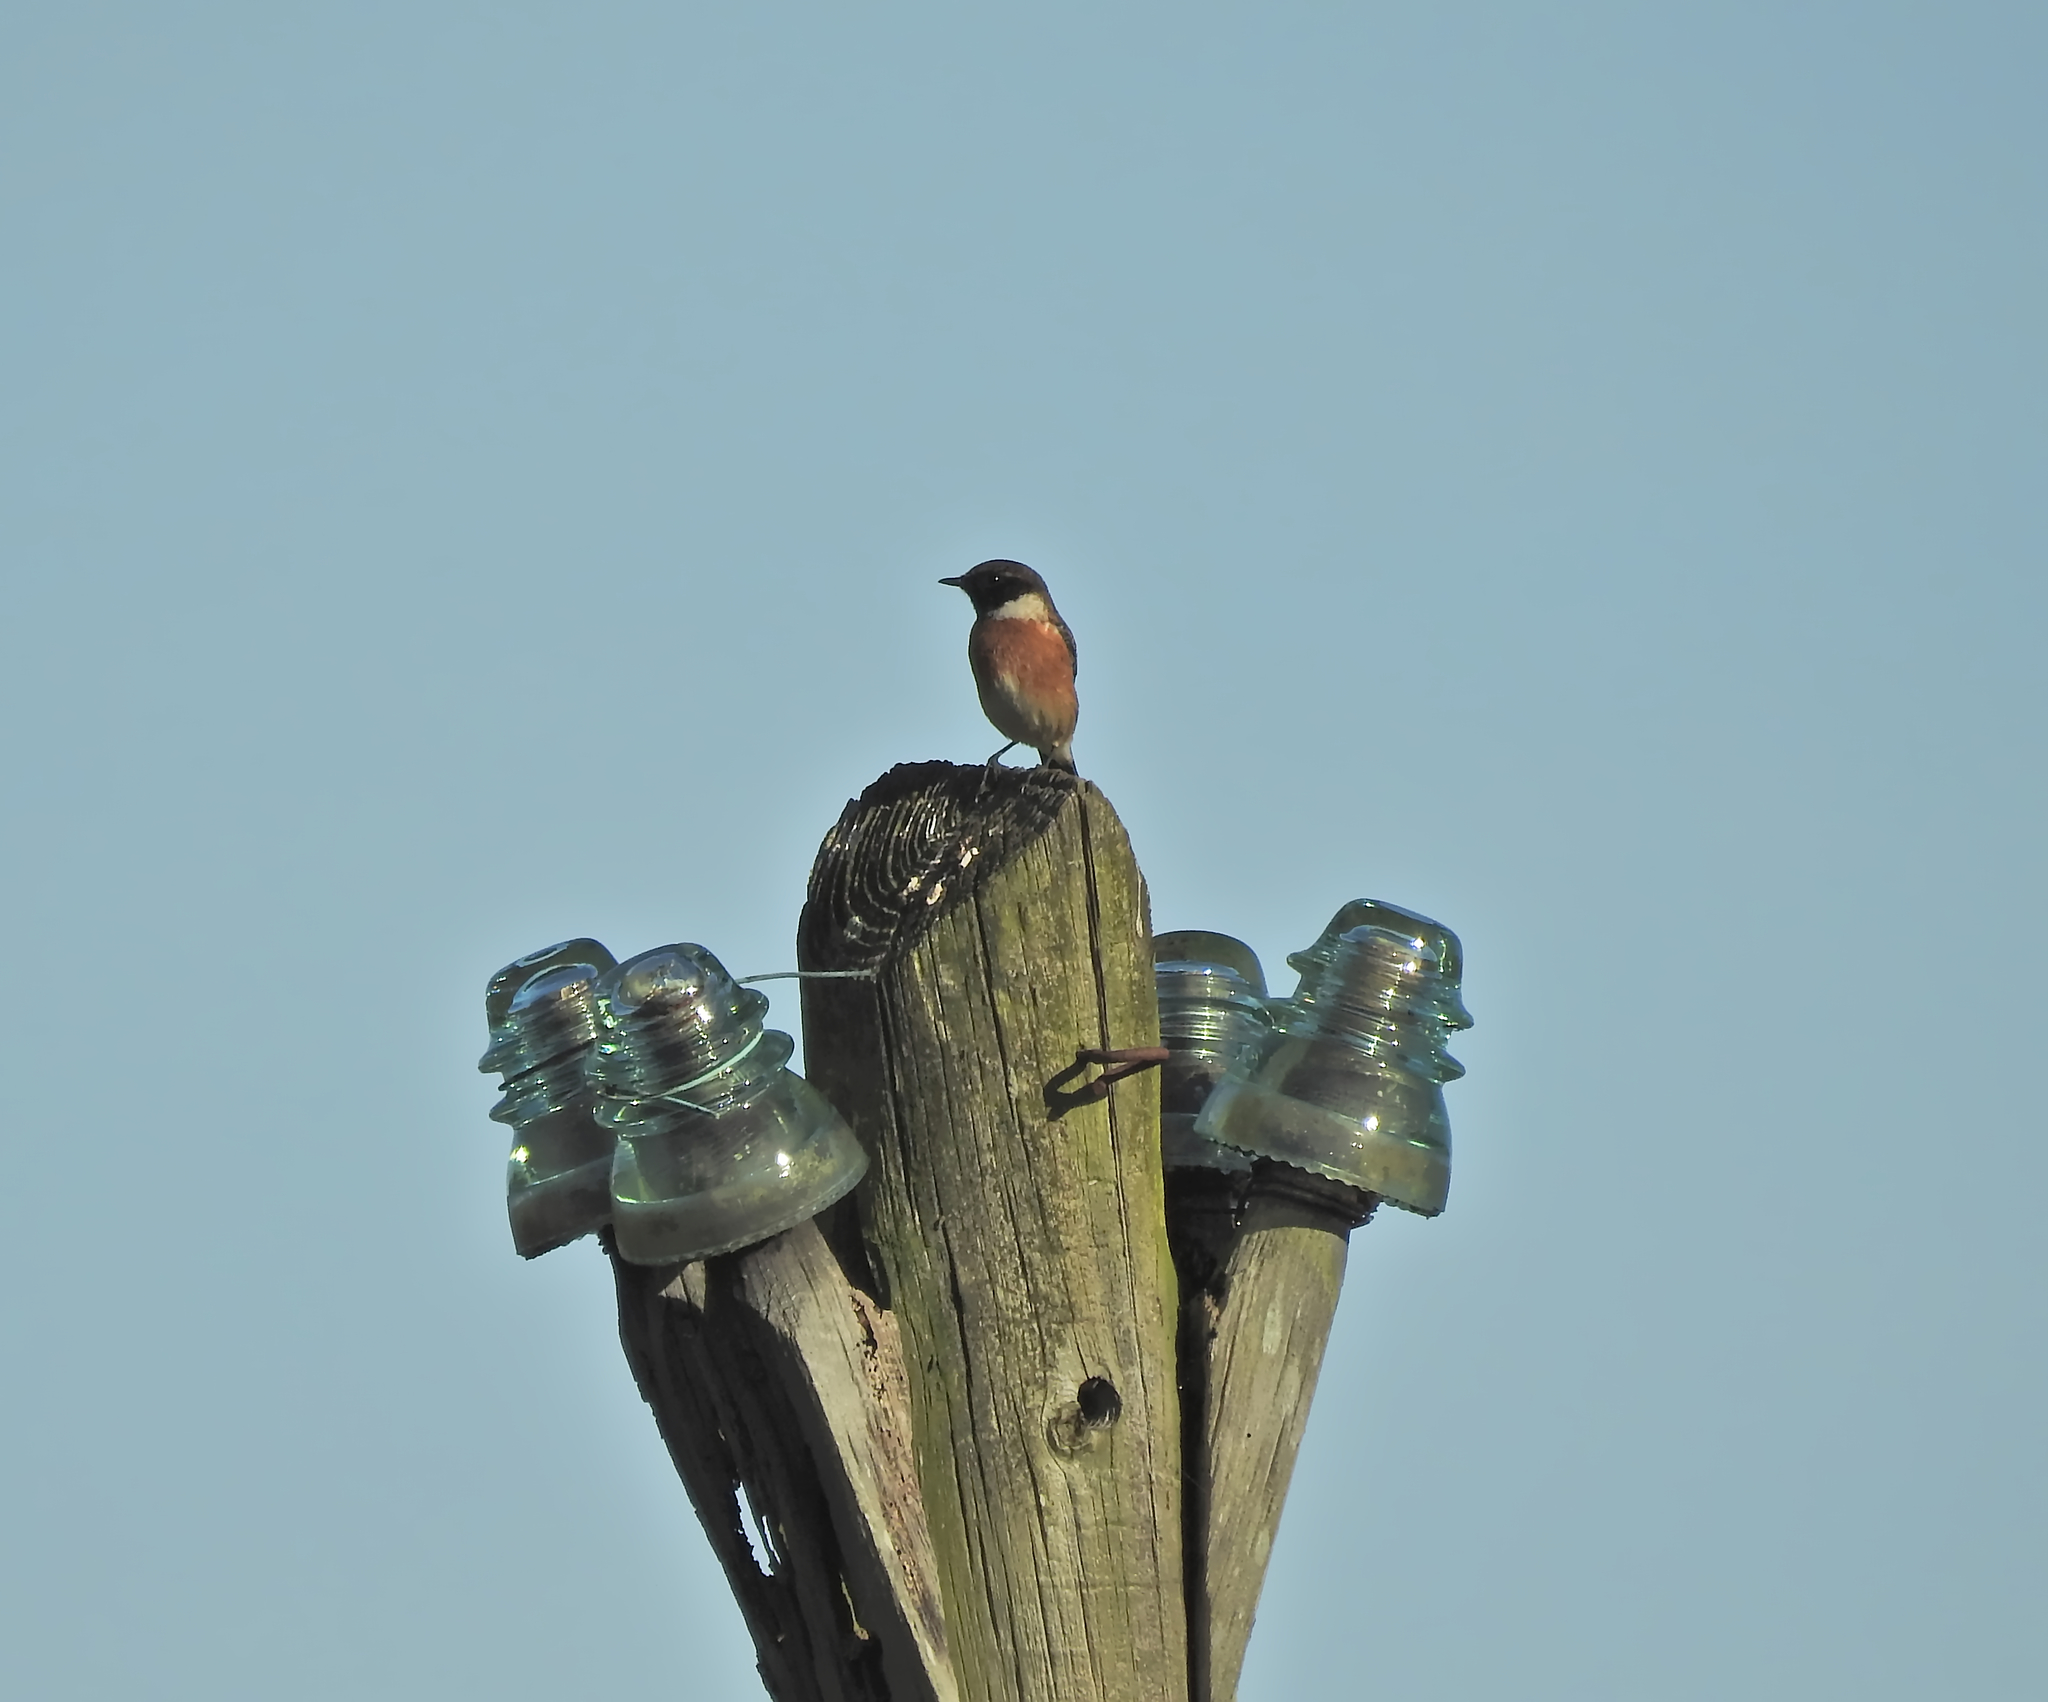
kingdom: Animalia
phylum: Chordata
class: Aves
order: Passeriformes
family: Muscicapidae
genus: Saxicola
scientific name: Saxicola rubicola
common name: European stonechat
